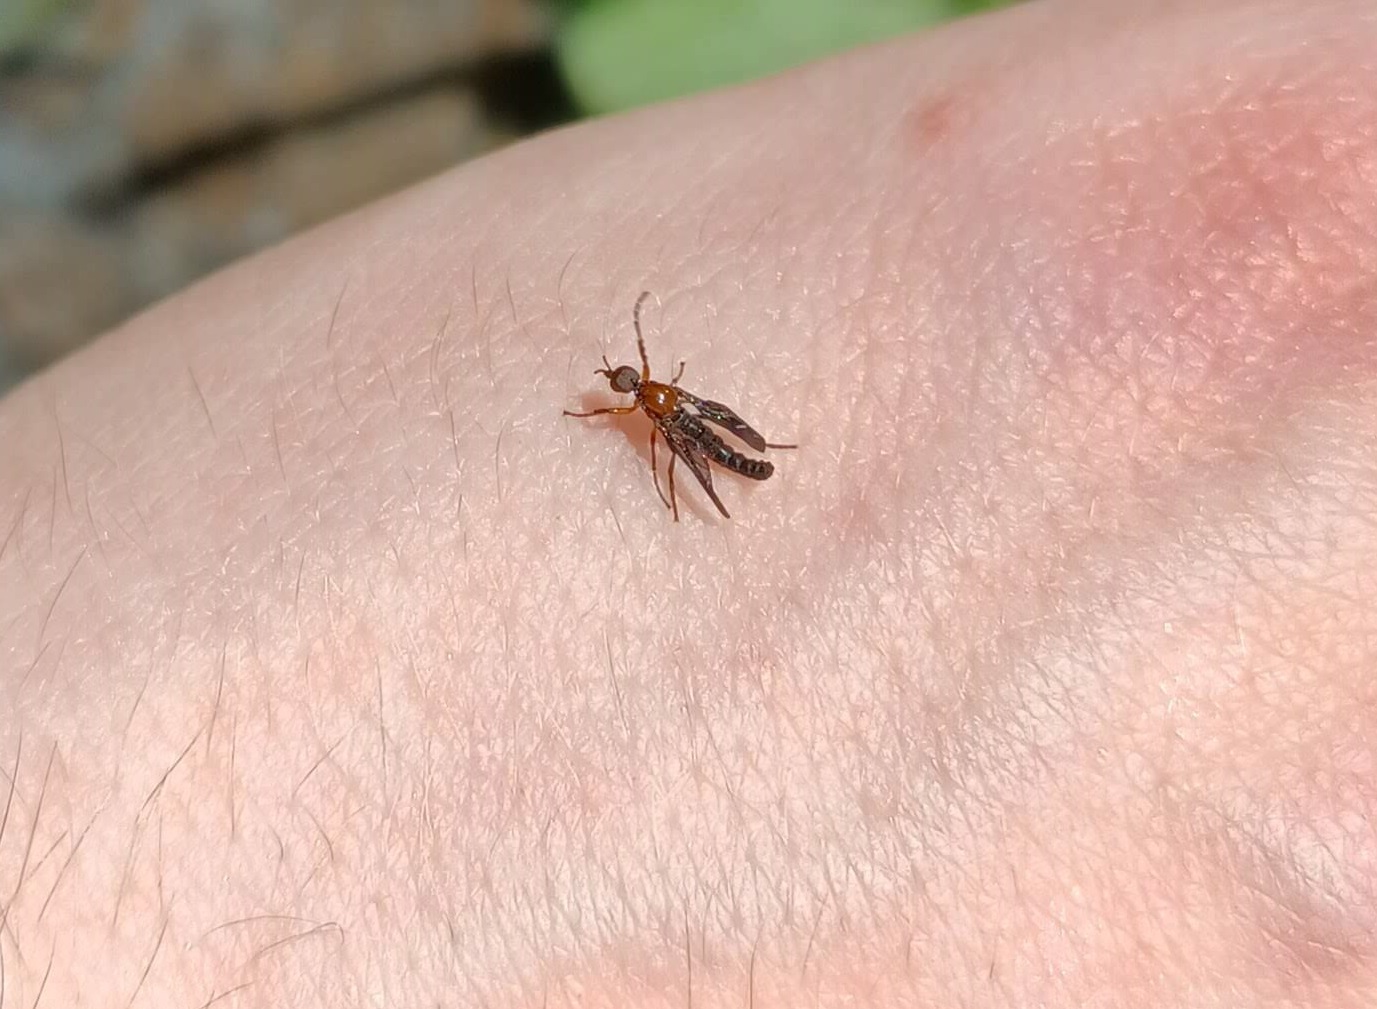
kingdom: Animalia
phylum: Arthropoda
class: Insecta
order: Diptera
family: Bibionidae
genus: Dilophus
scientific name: Dilophus spinipes
